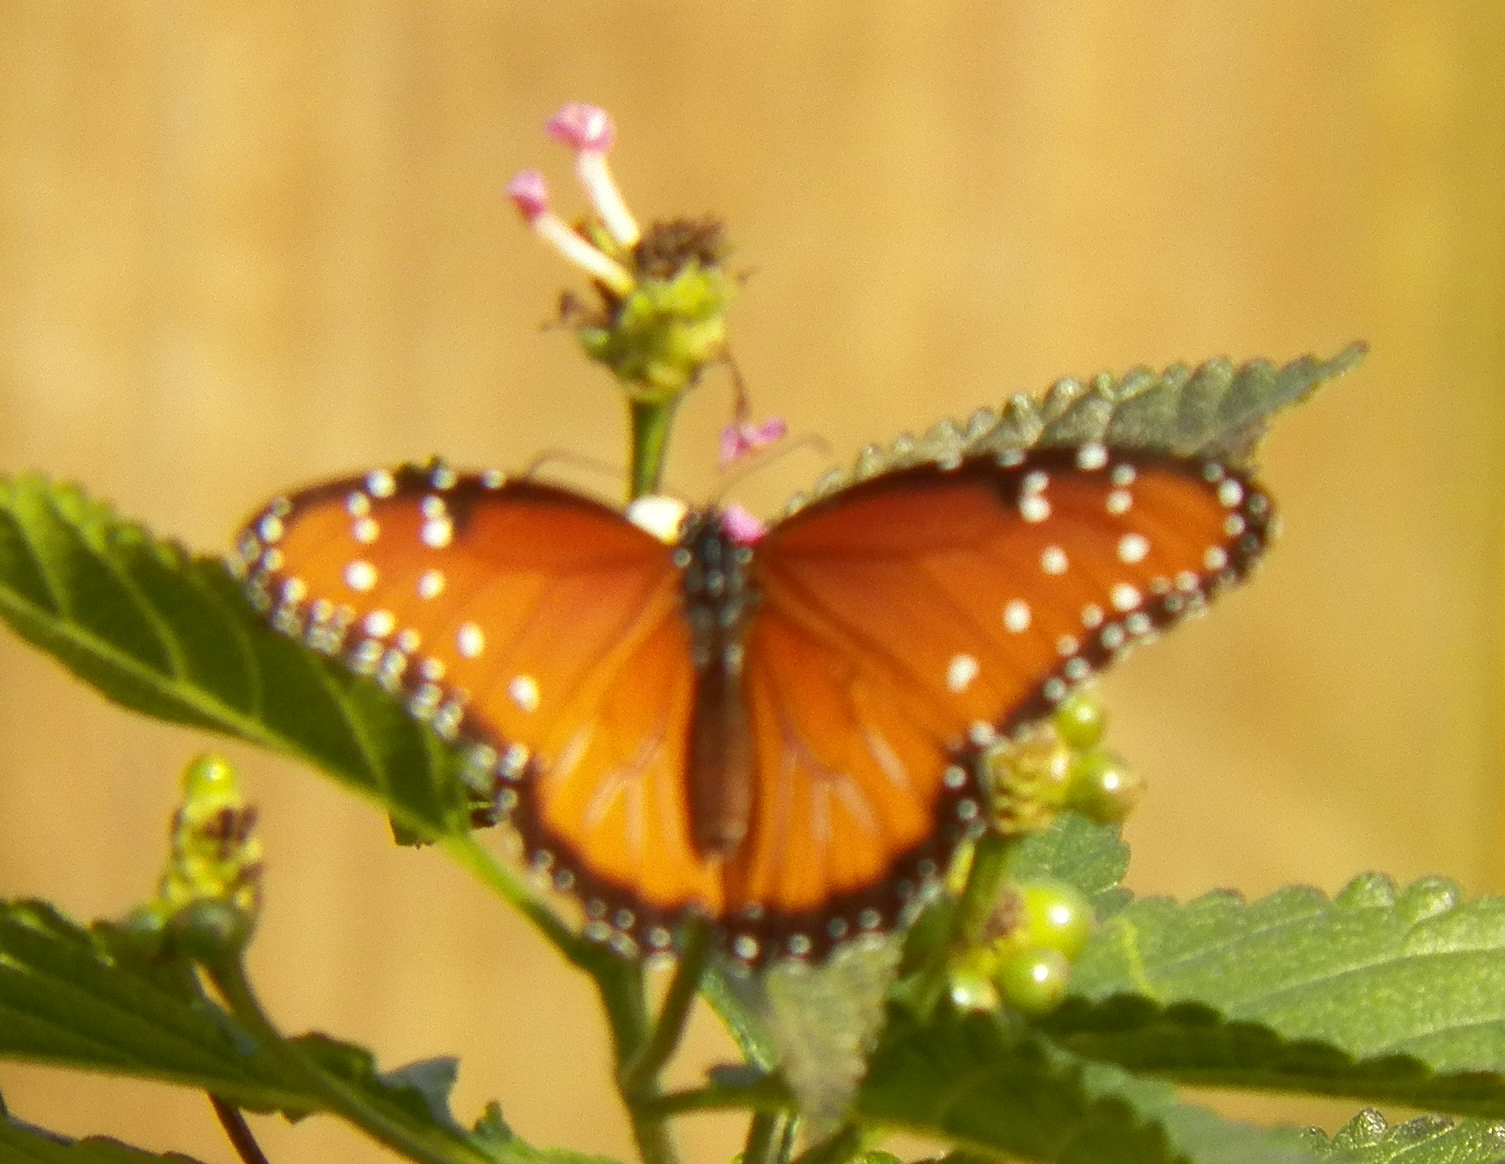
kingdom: Animalia
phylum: Arthropoda
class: Insecta
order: Lepidoptera
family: Nymphalidae
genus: Danaus
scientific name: Danaus gilippus
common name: Queen
